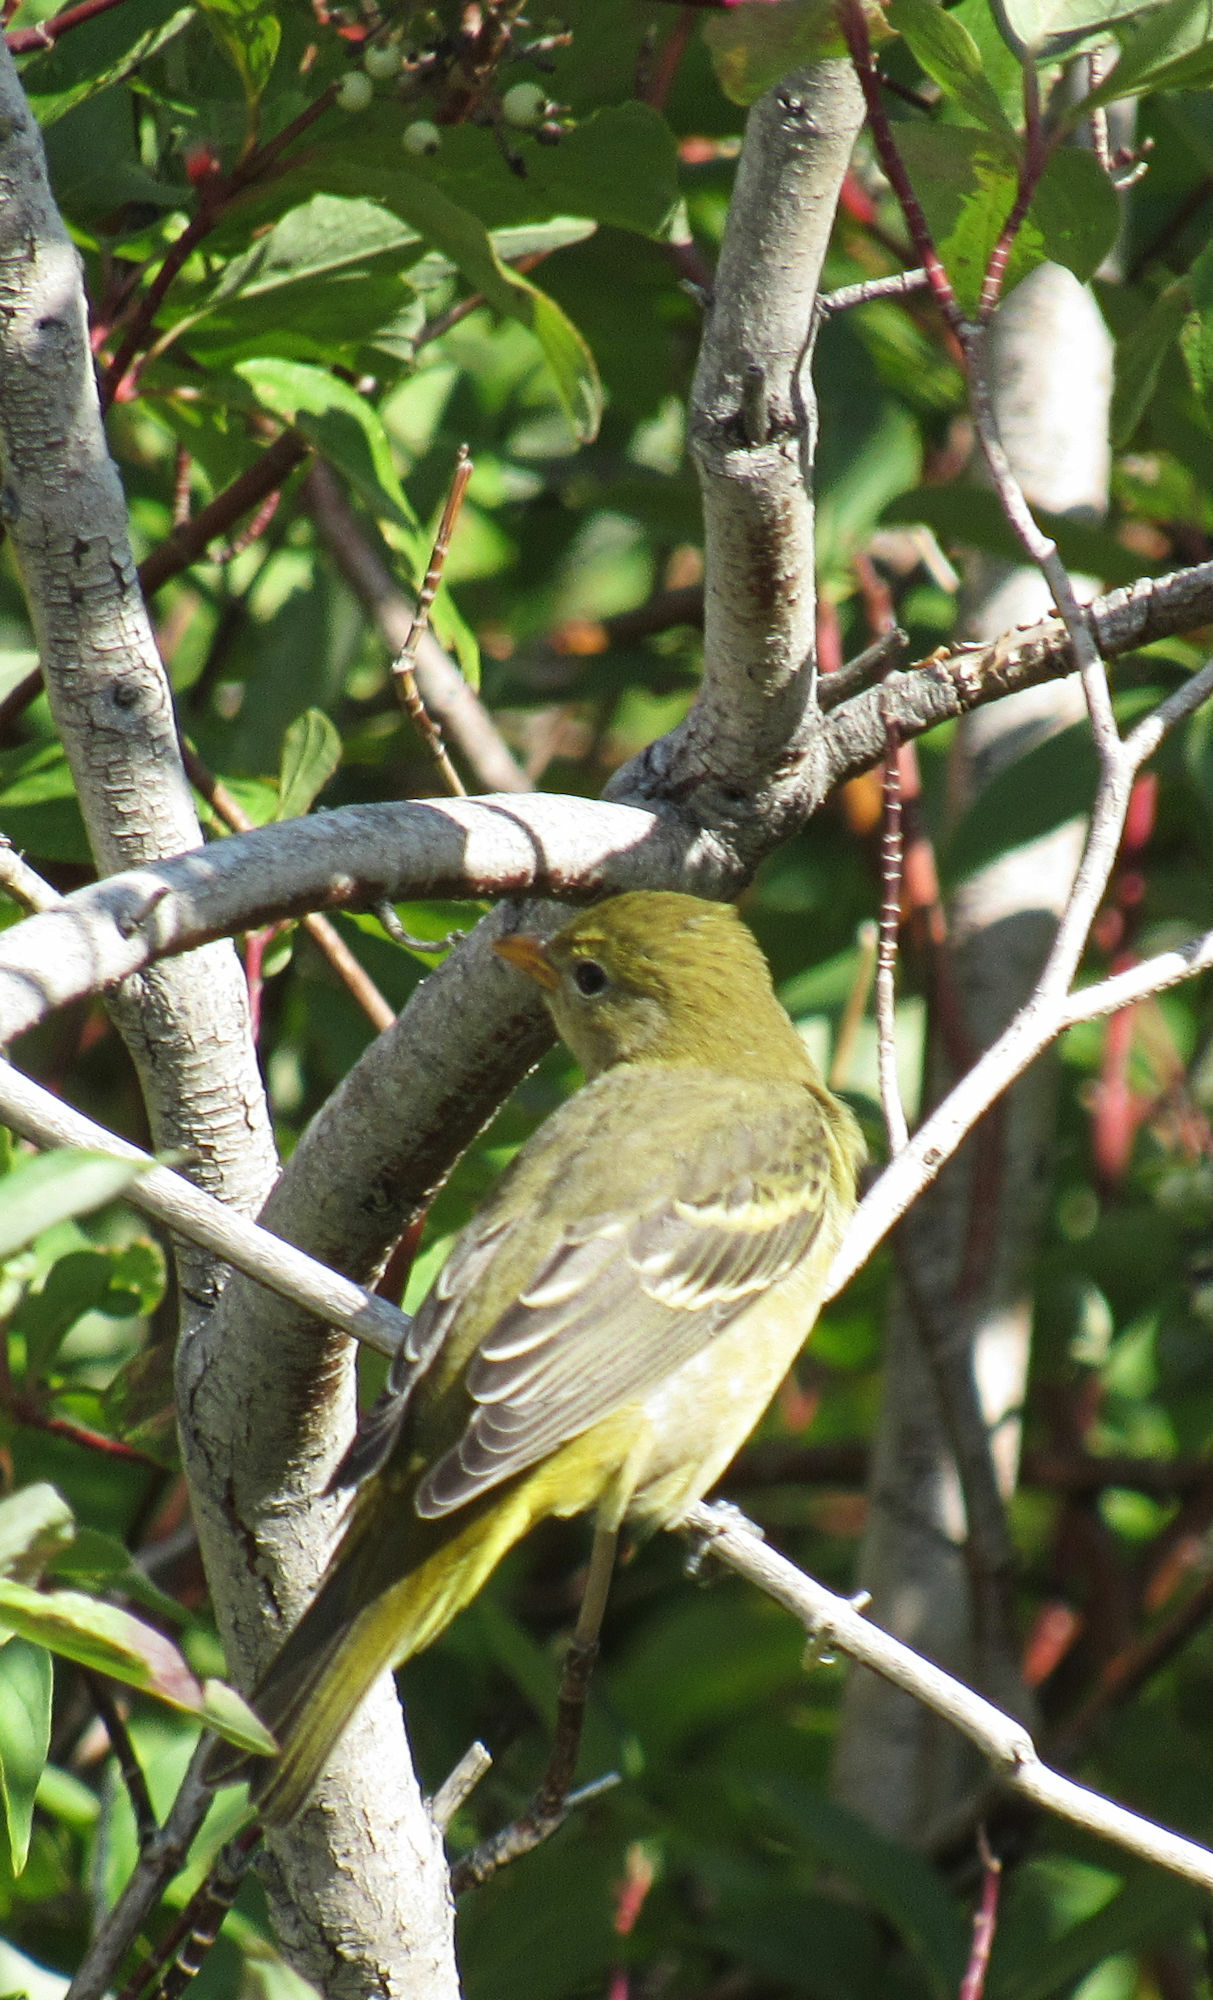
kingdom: Animalia
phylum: Chordata
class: Aves
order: Passeriformes
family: Cardinalidae
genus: Piranga
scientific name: Piranga ludoviciana
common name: Western tanager
